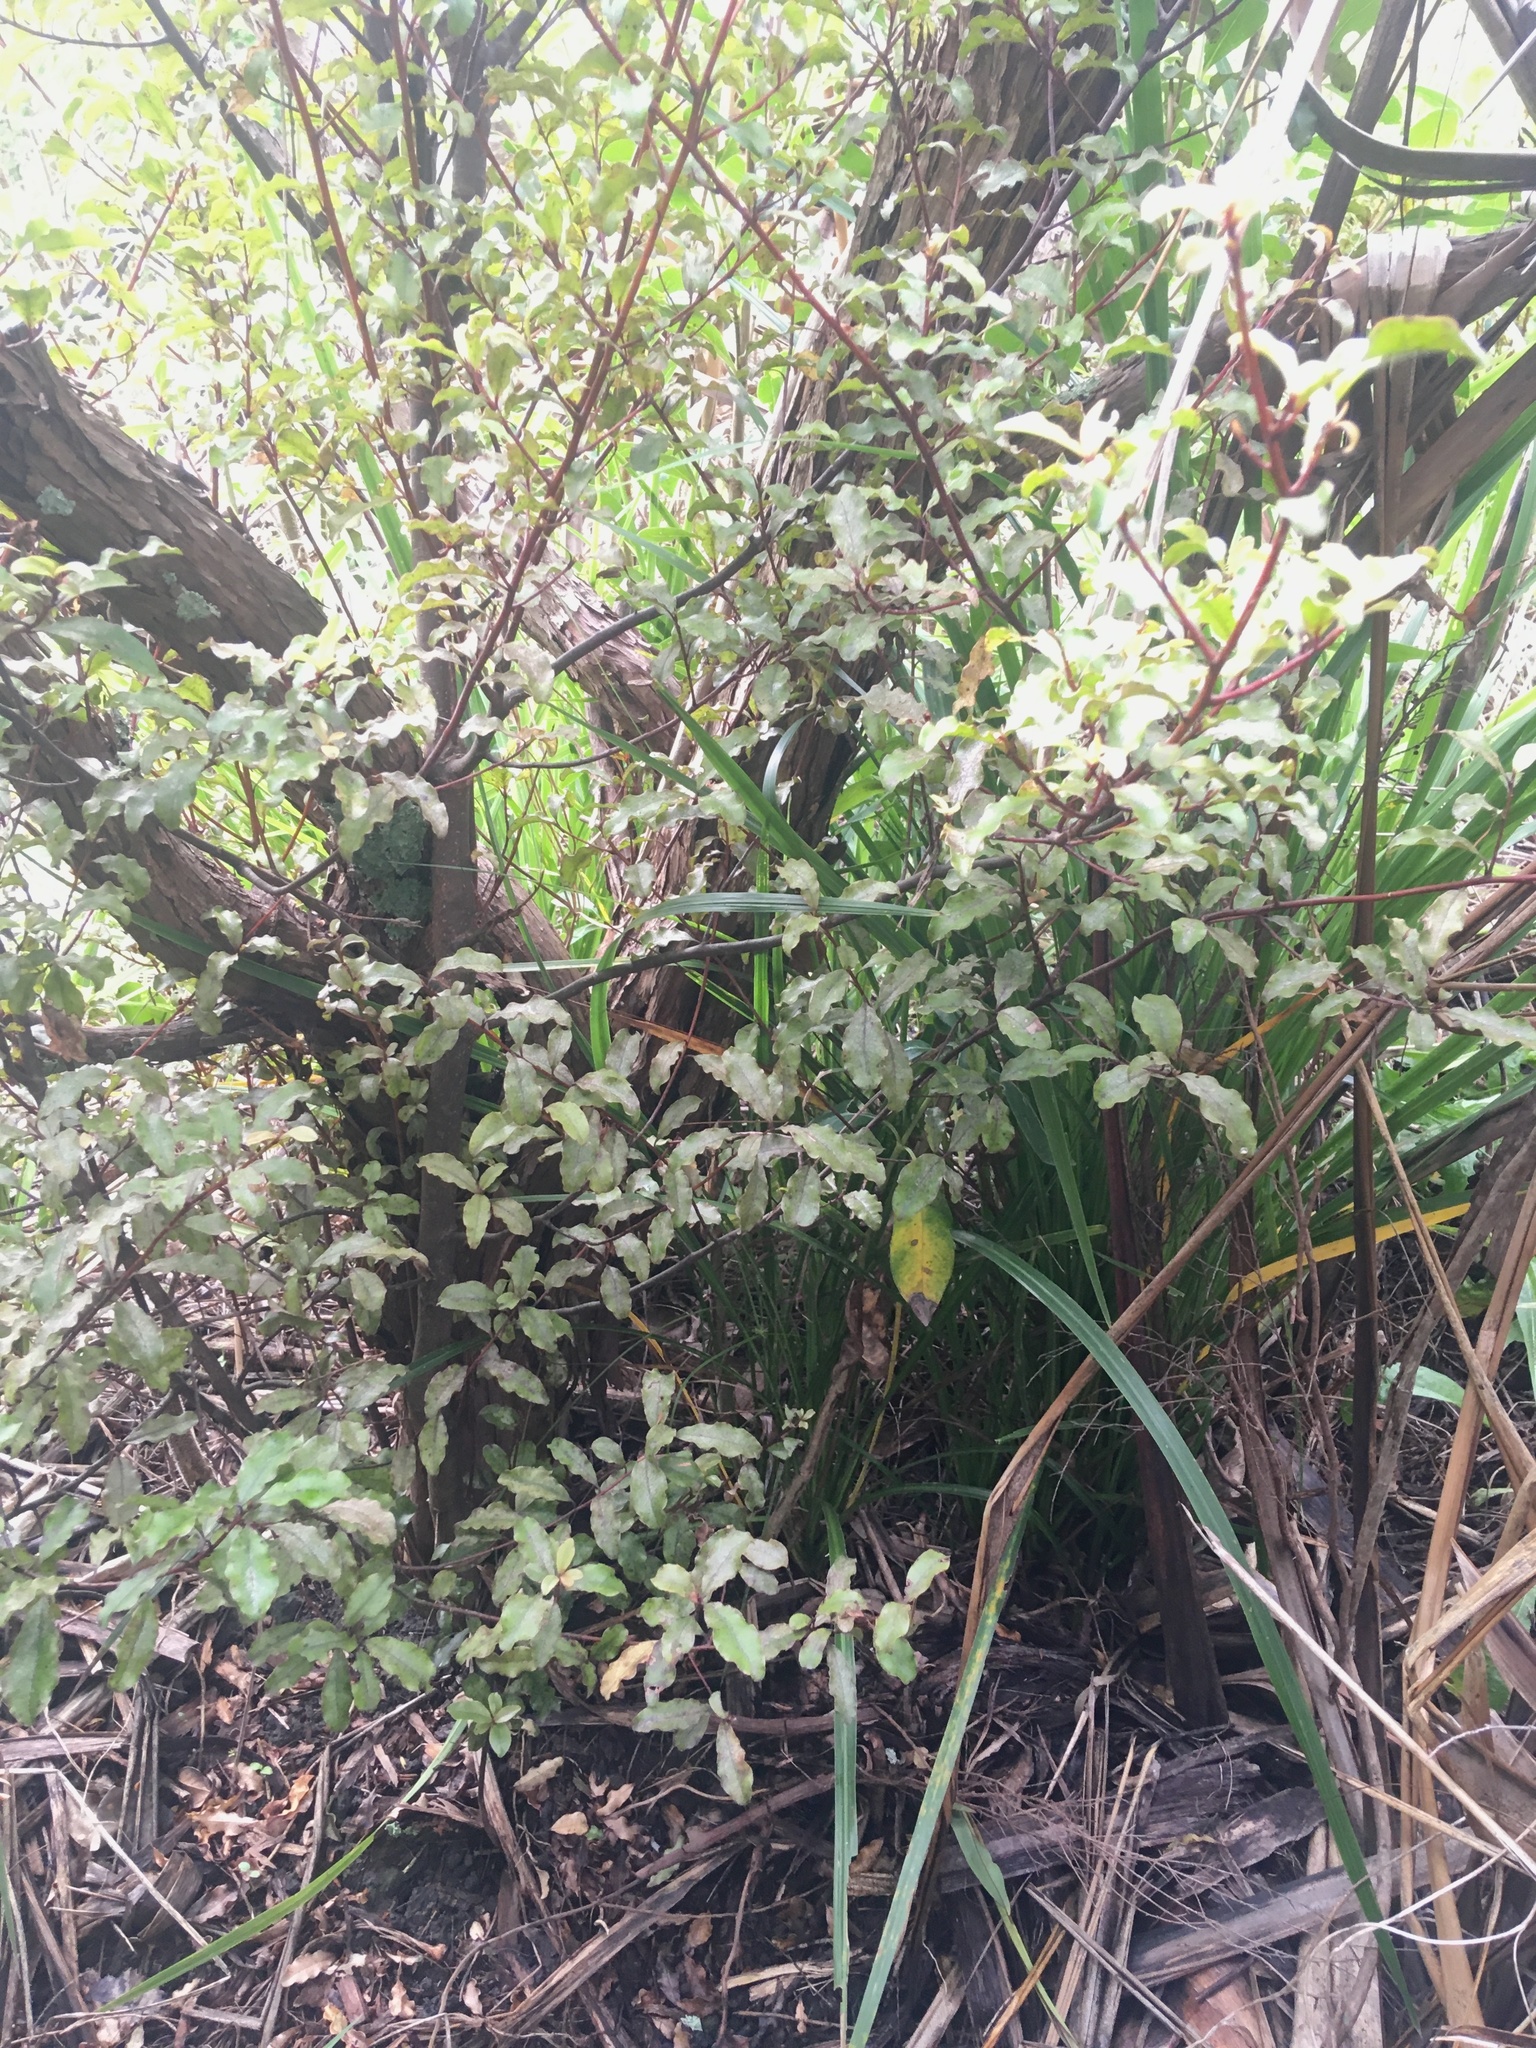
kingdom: Plantae
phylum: Tracheophyta
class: Magnoliopsida
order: Ericales
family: Primulaceae
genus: Myrsine
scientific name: Myrsine australis
